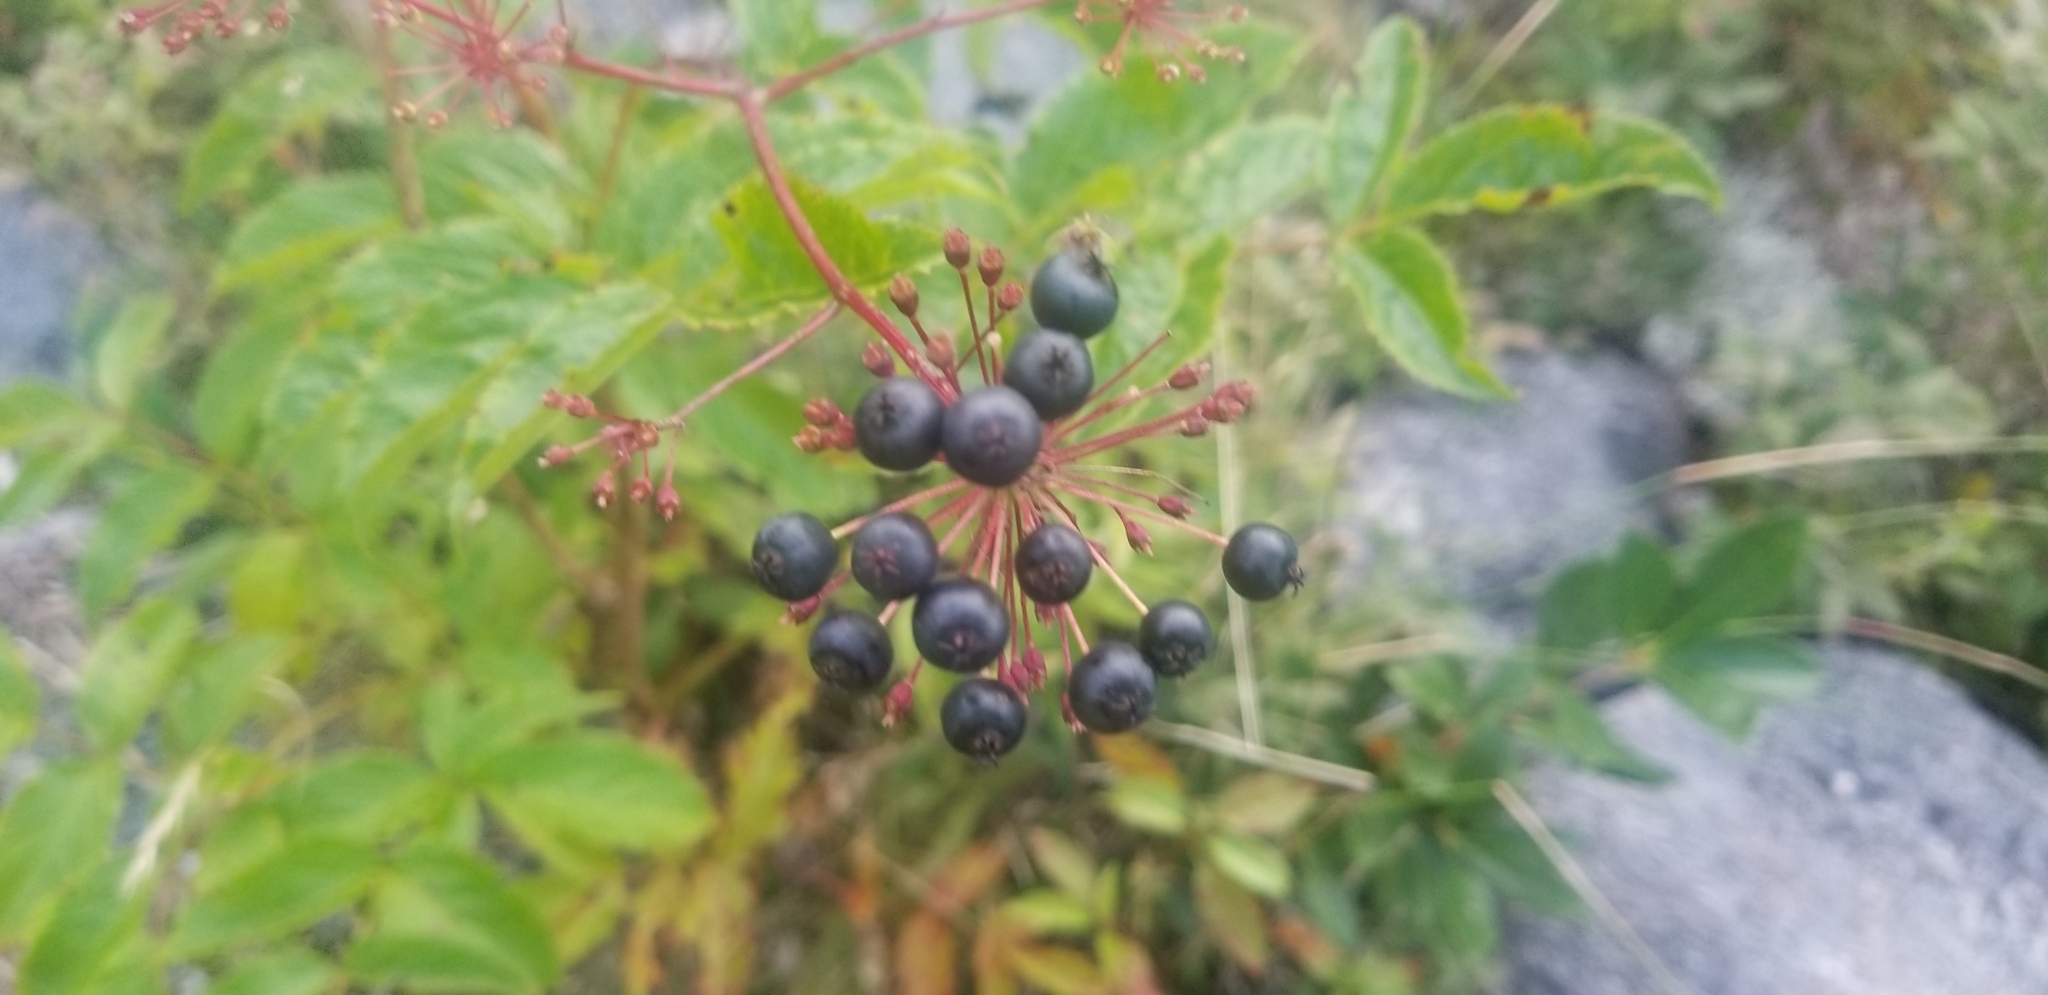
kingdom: Plantae
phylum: Tracheophyta
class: Magnoliopsida
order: Apiales
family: Araliaceae
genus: Aralia
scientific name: Aralia hispida
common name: Bristly sarsaparilla
